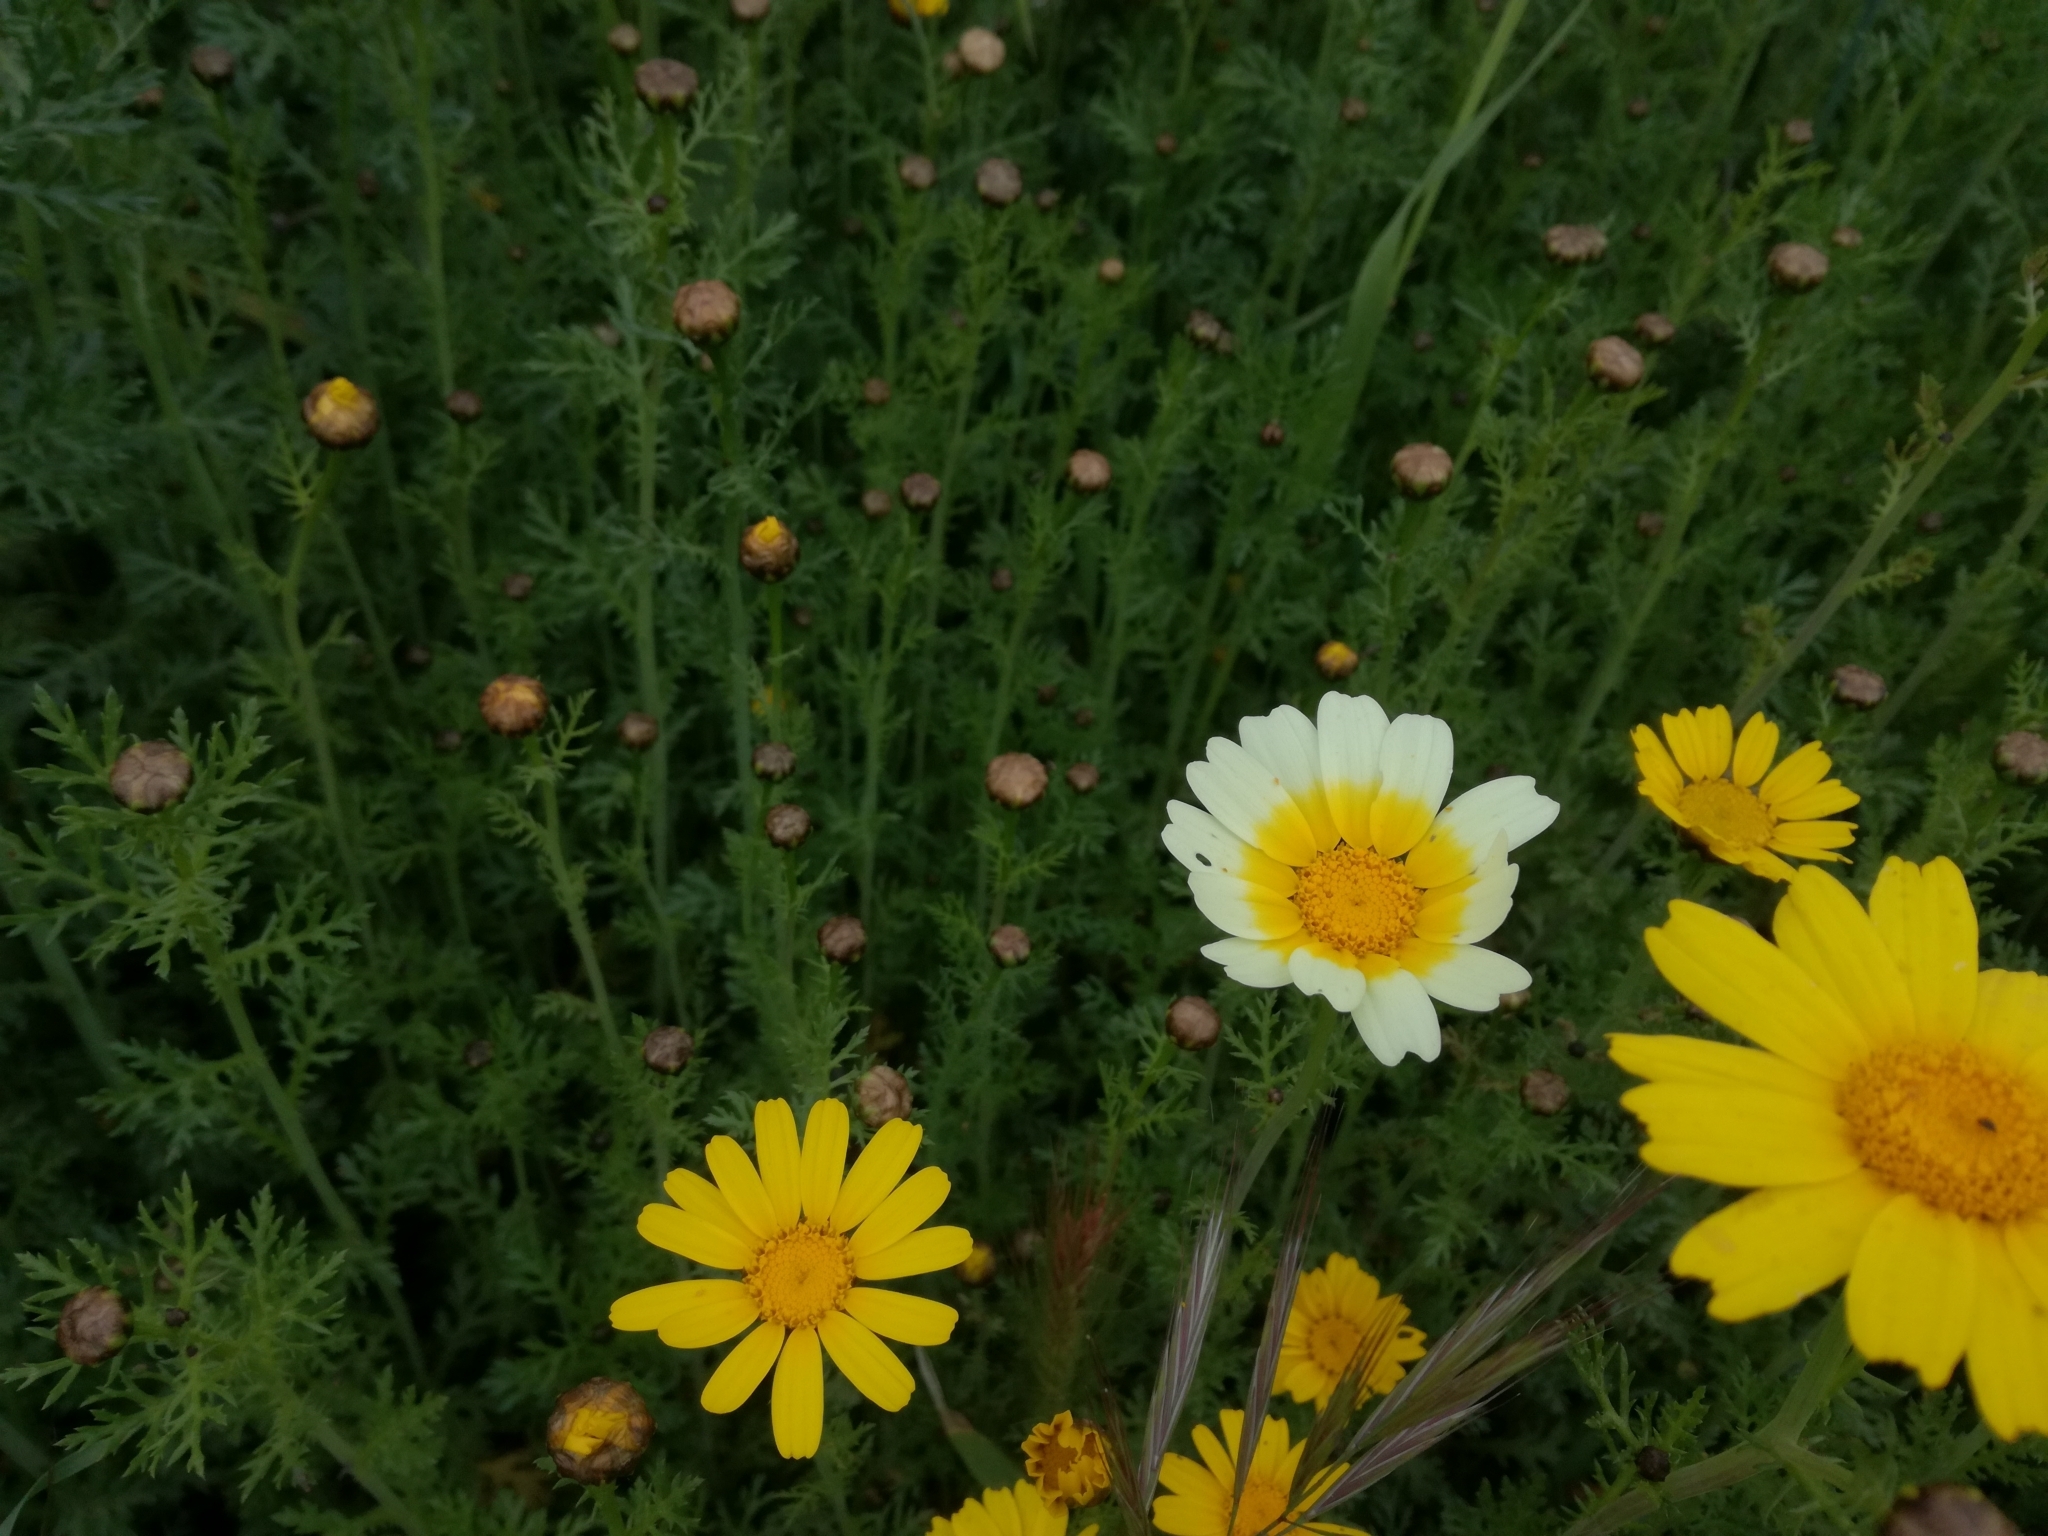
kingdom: Plantae
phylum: Tracheophyta
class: Magnoliopsida
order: Asterales
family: Asteraceae
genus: Glebionis
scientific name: Glebionis coronaria
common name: Crowndaisy
